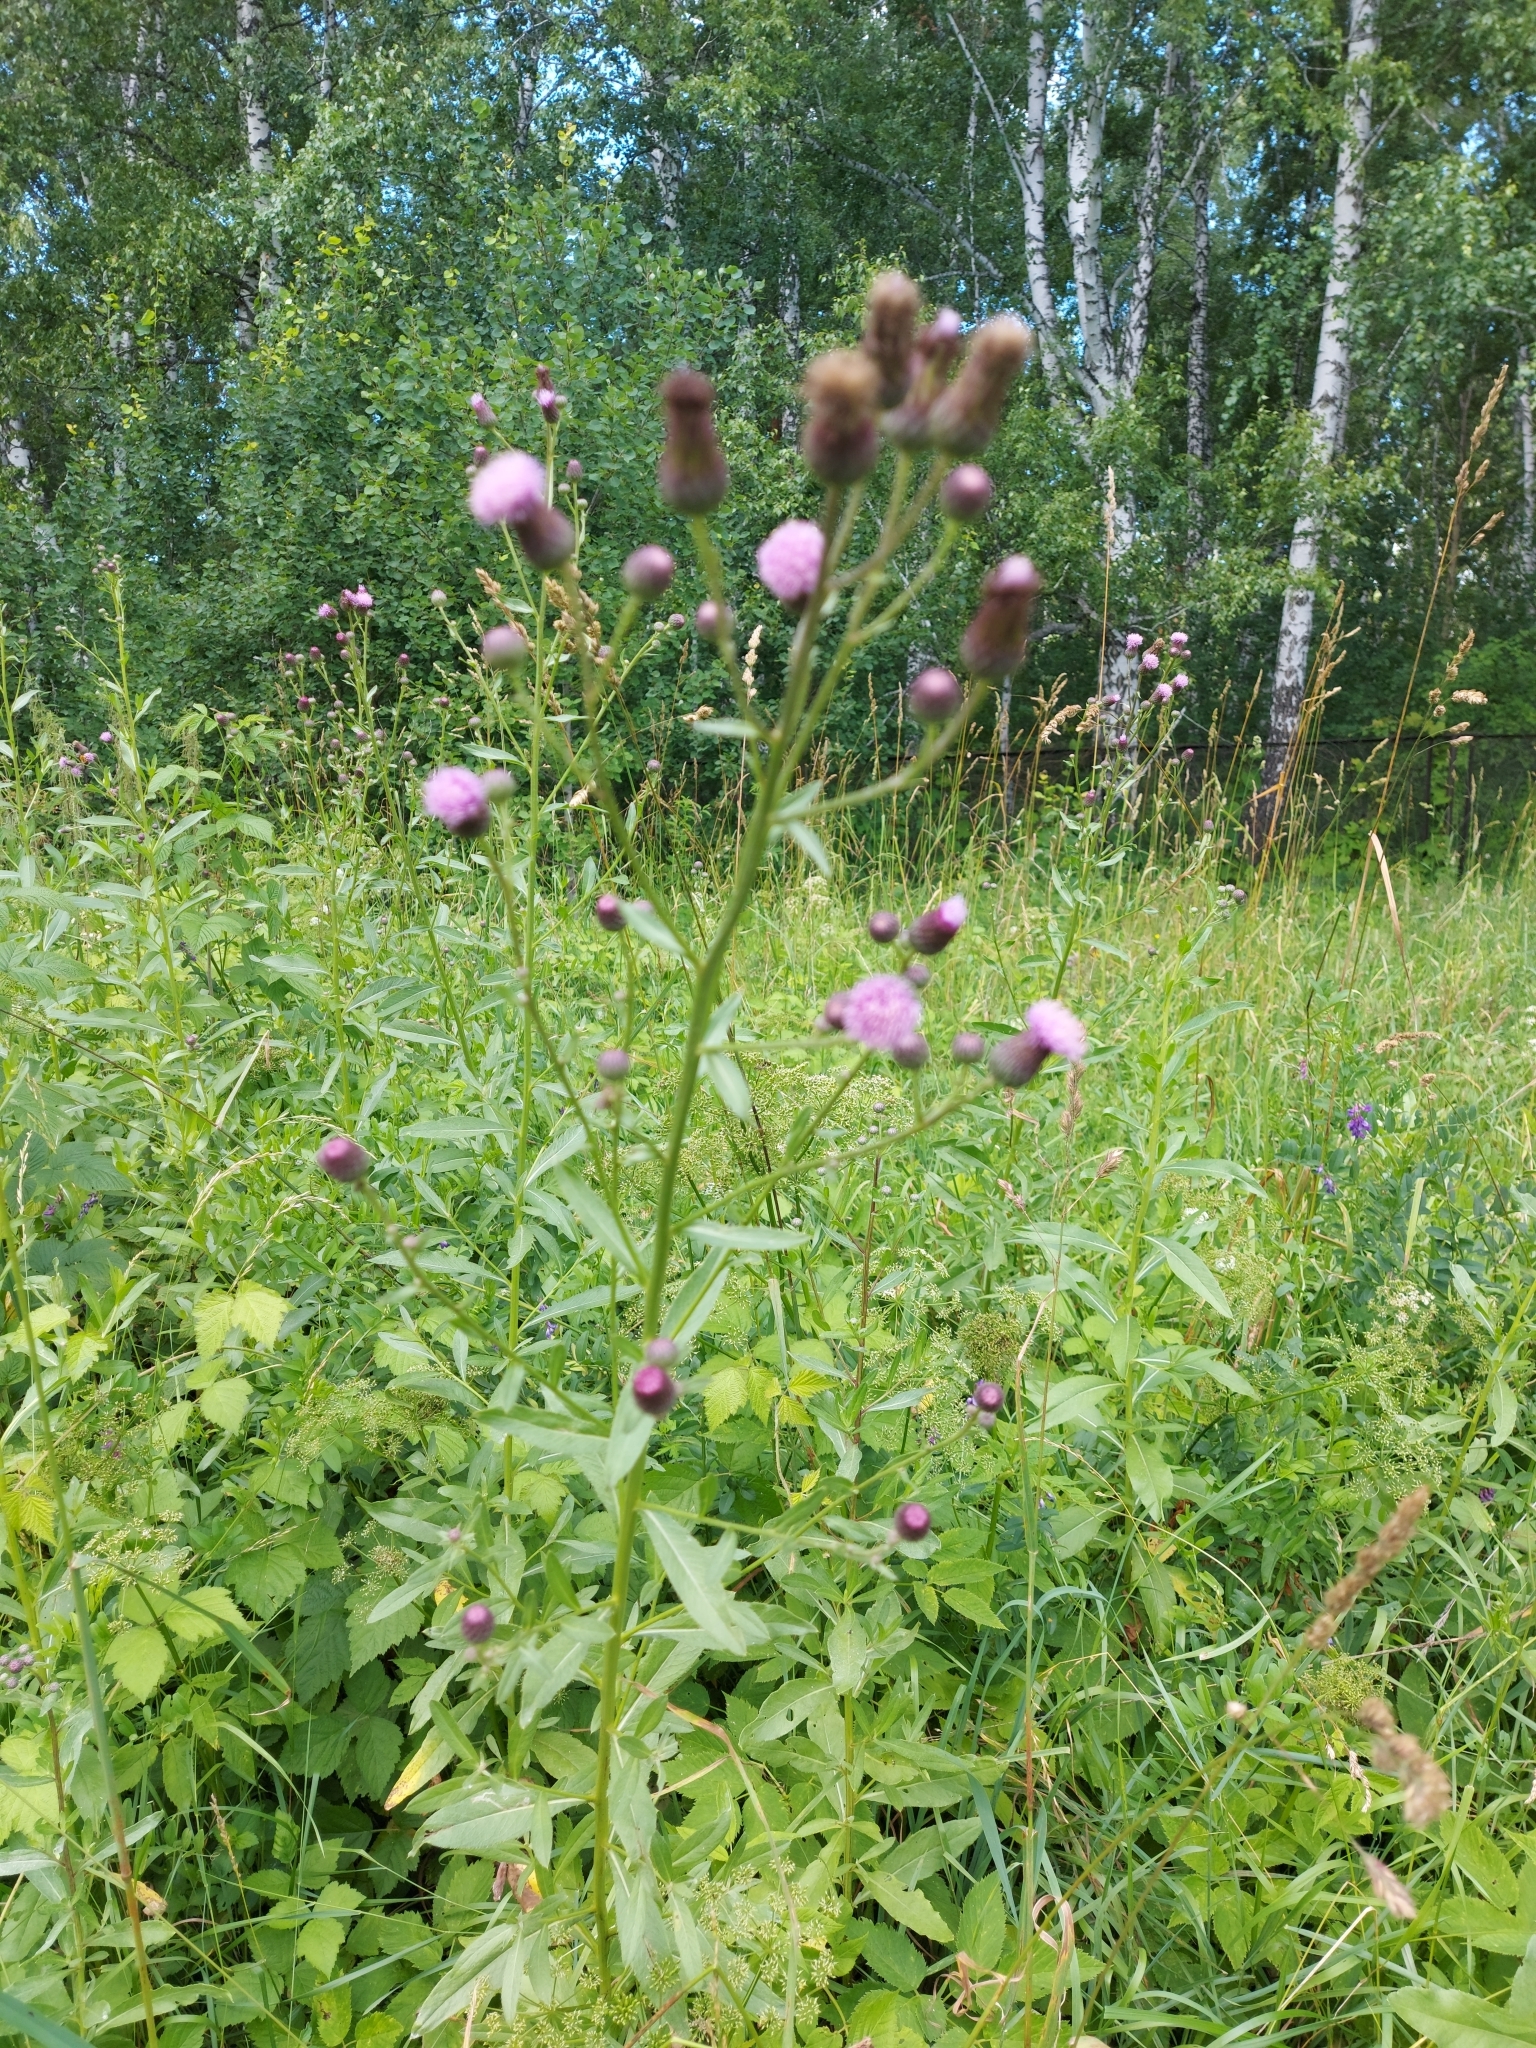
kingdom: Plantae
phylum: Tracheophyta
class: Magnoliopsida
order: Asterales
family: Asteraceae
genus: Cirsium
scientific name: Cirsium arvense
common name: Creeping thistle
